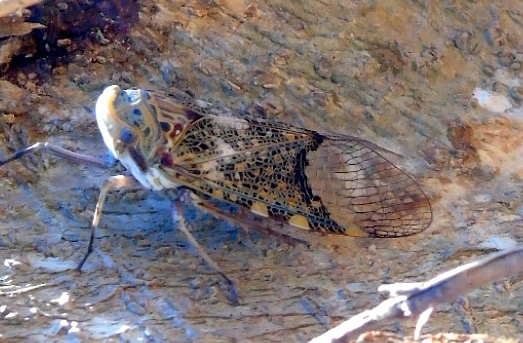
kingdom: Animalia
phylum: Arthropoda
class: Insecta
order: Hemiptera
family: Fulgoridae
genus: Scaralis
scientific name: Scaralis neotropicalis
